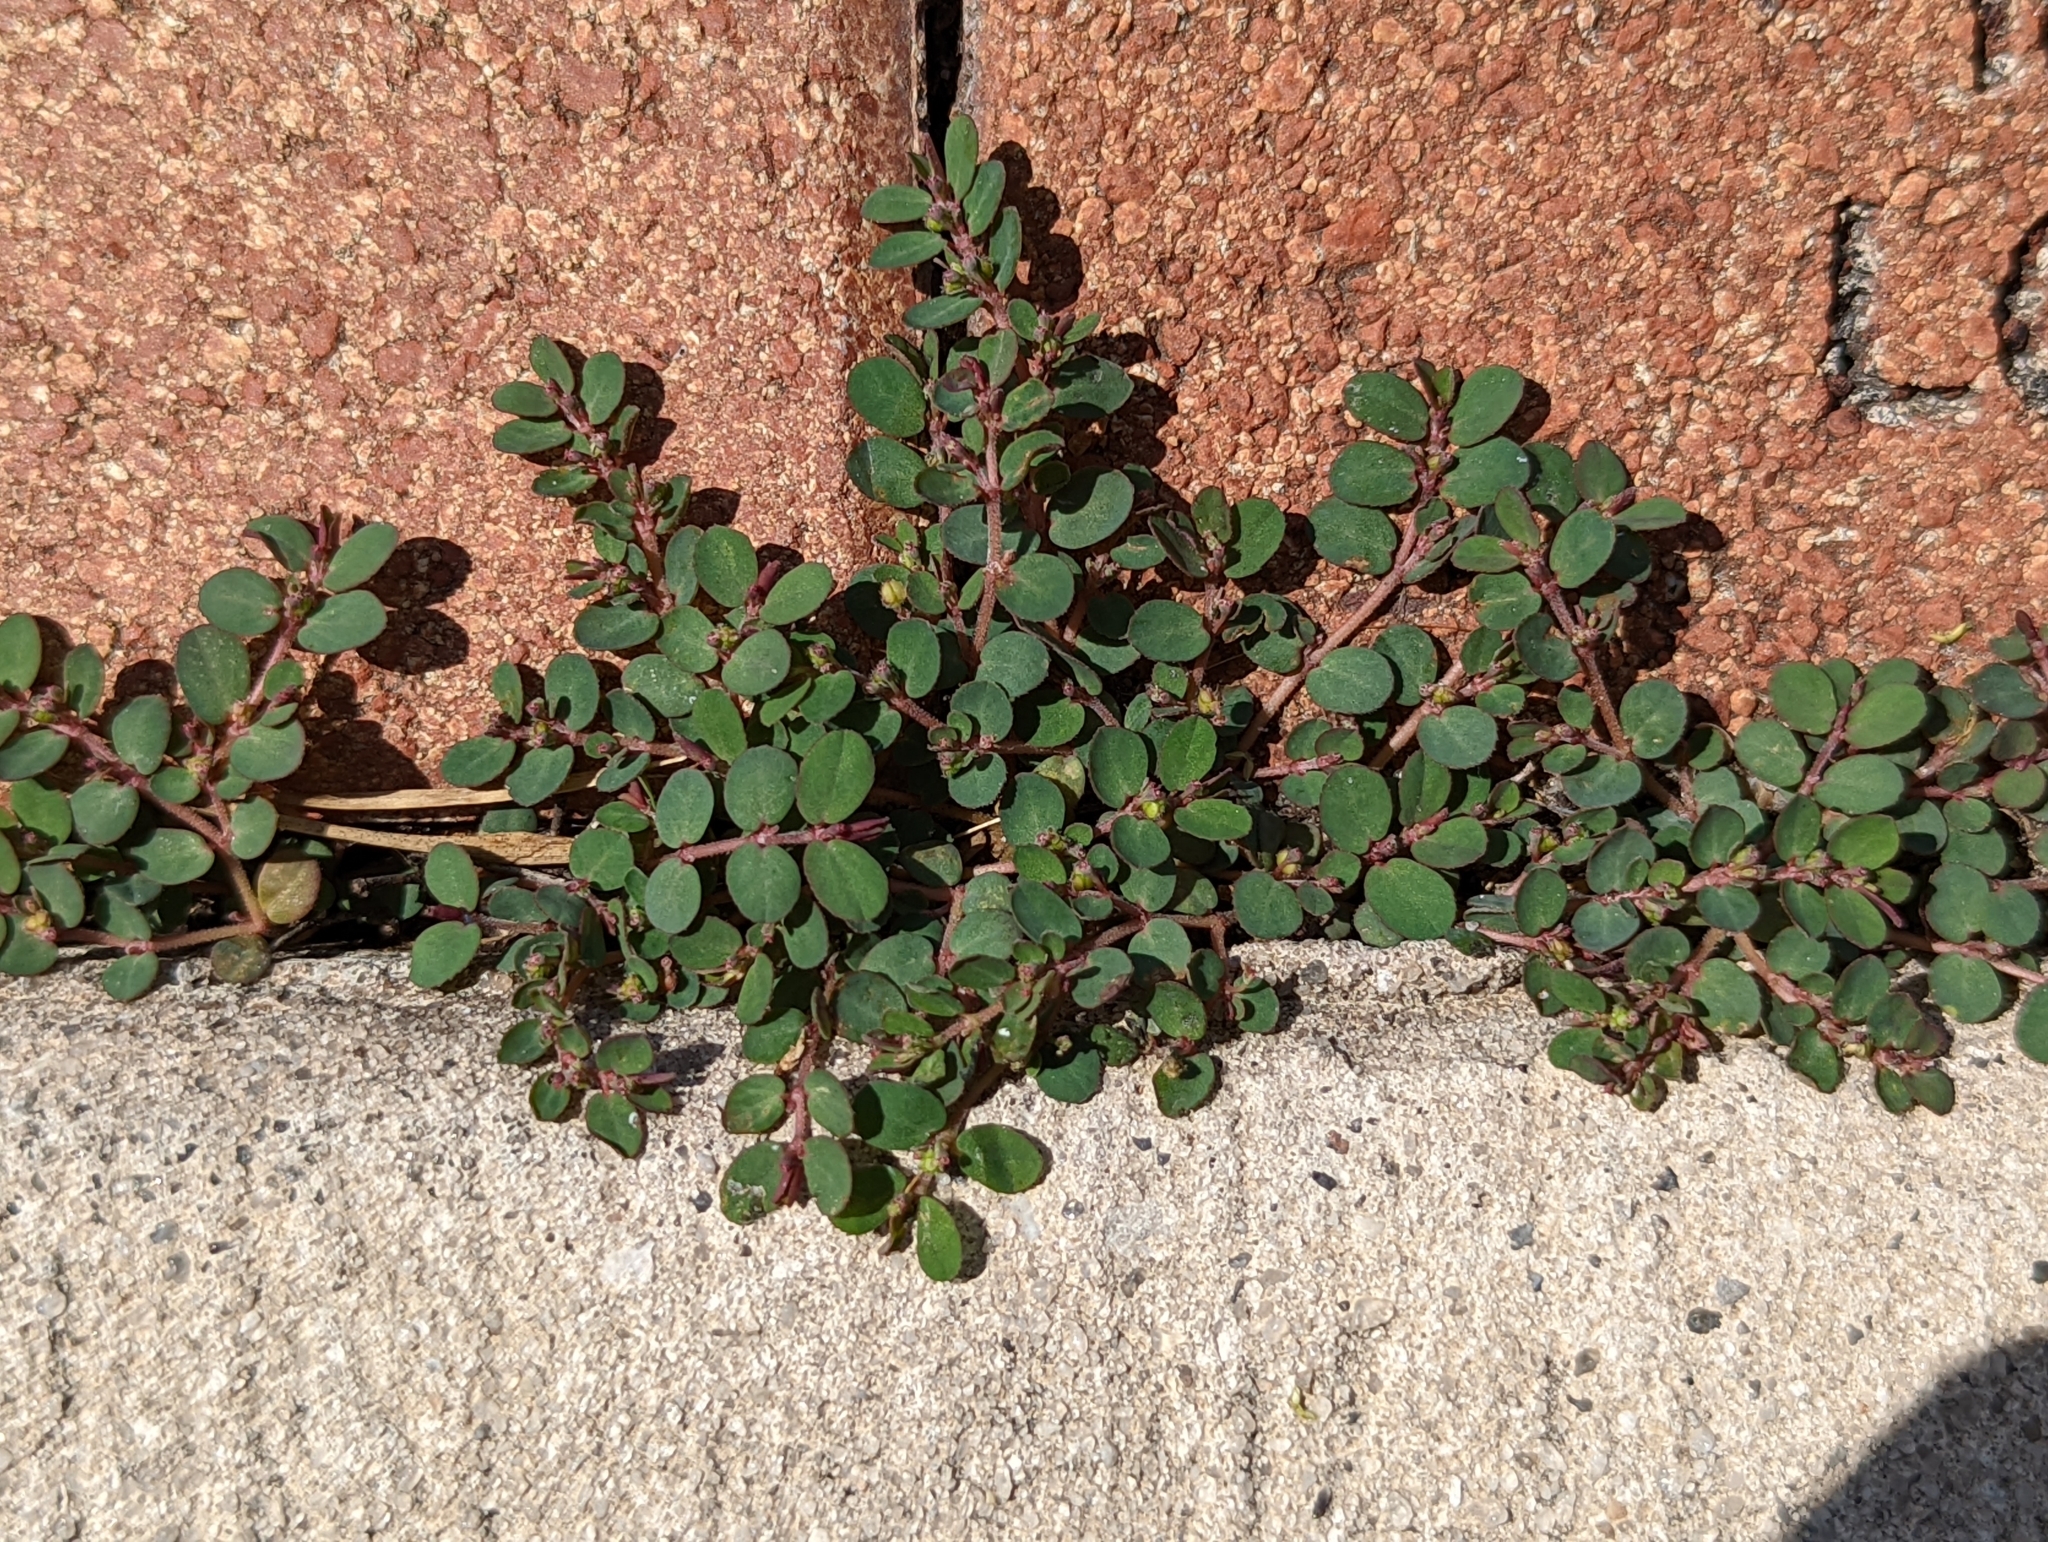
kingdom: Plantae
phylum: Tracheophyta
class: Magnoliopsida
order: Malpighiales
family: Euphorbiaceae
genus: Euphorbia
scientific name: Euphorbia prostrata
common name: Prostrate sandmat
